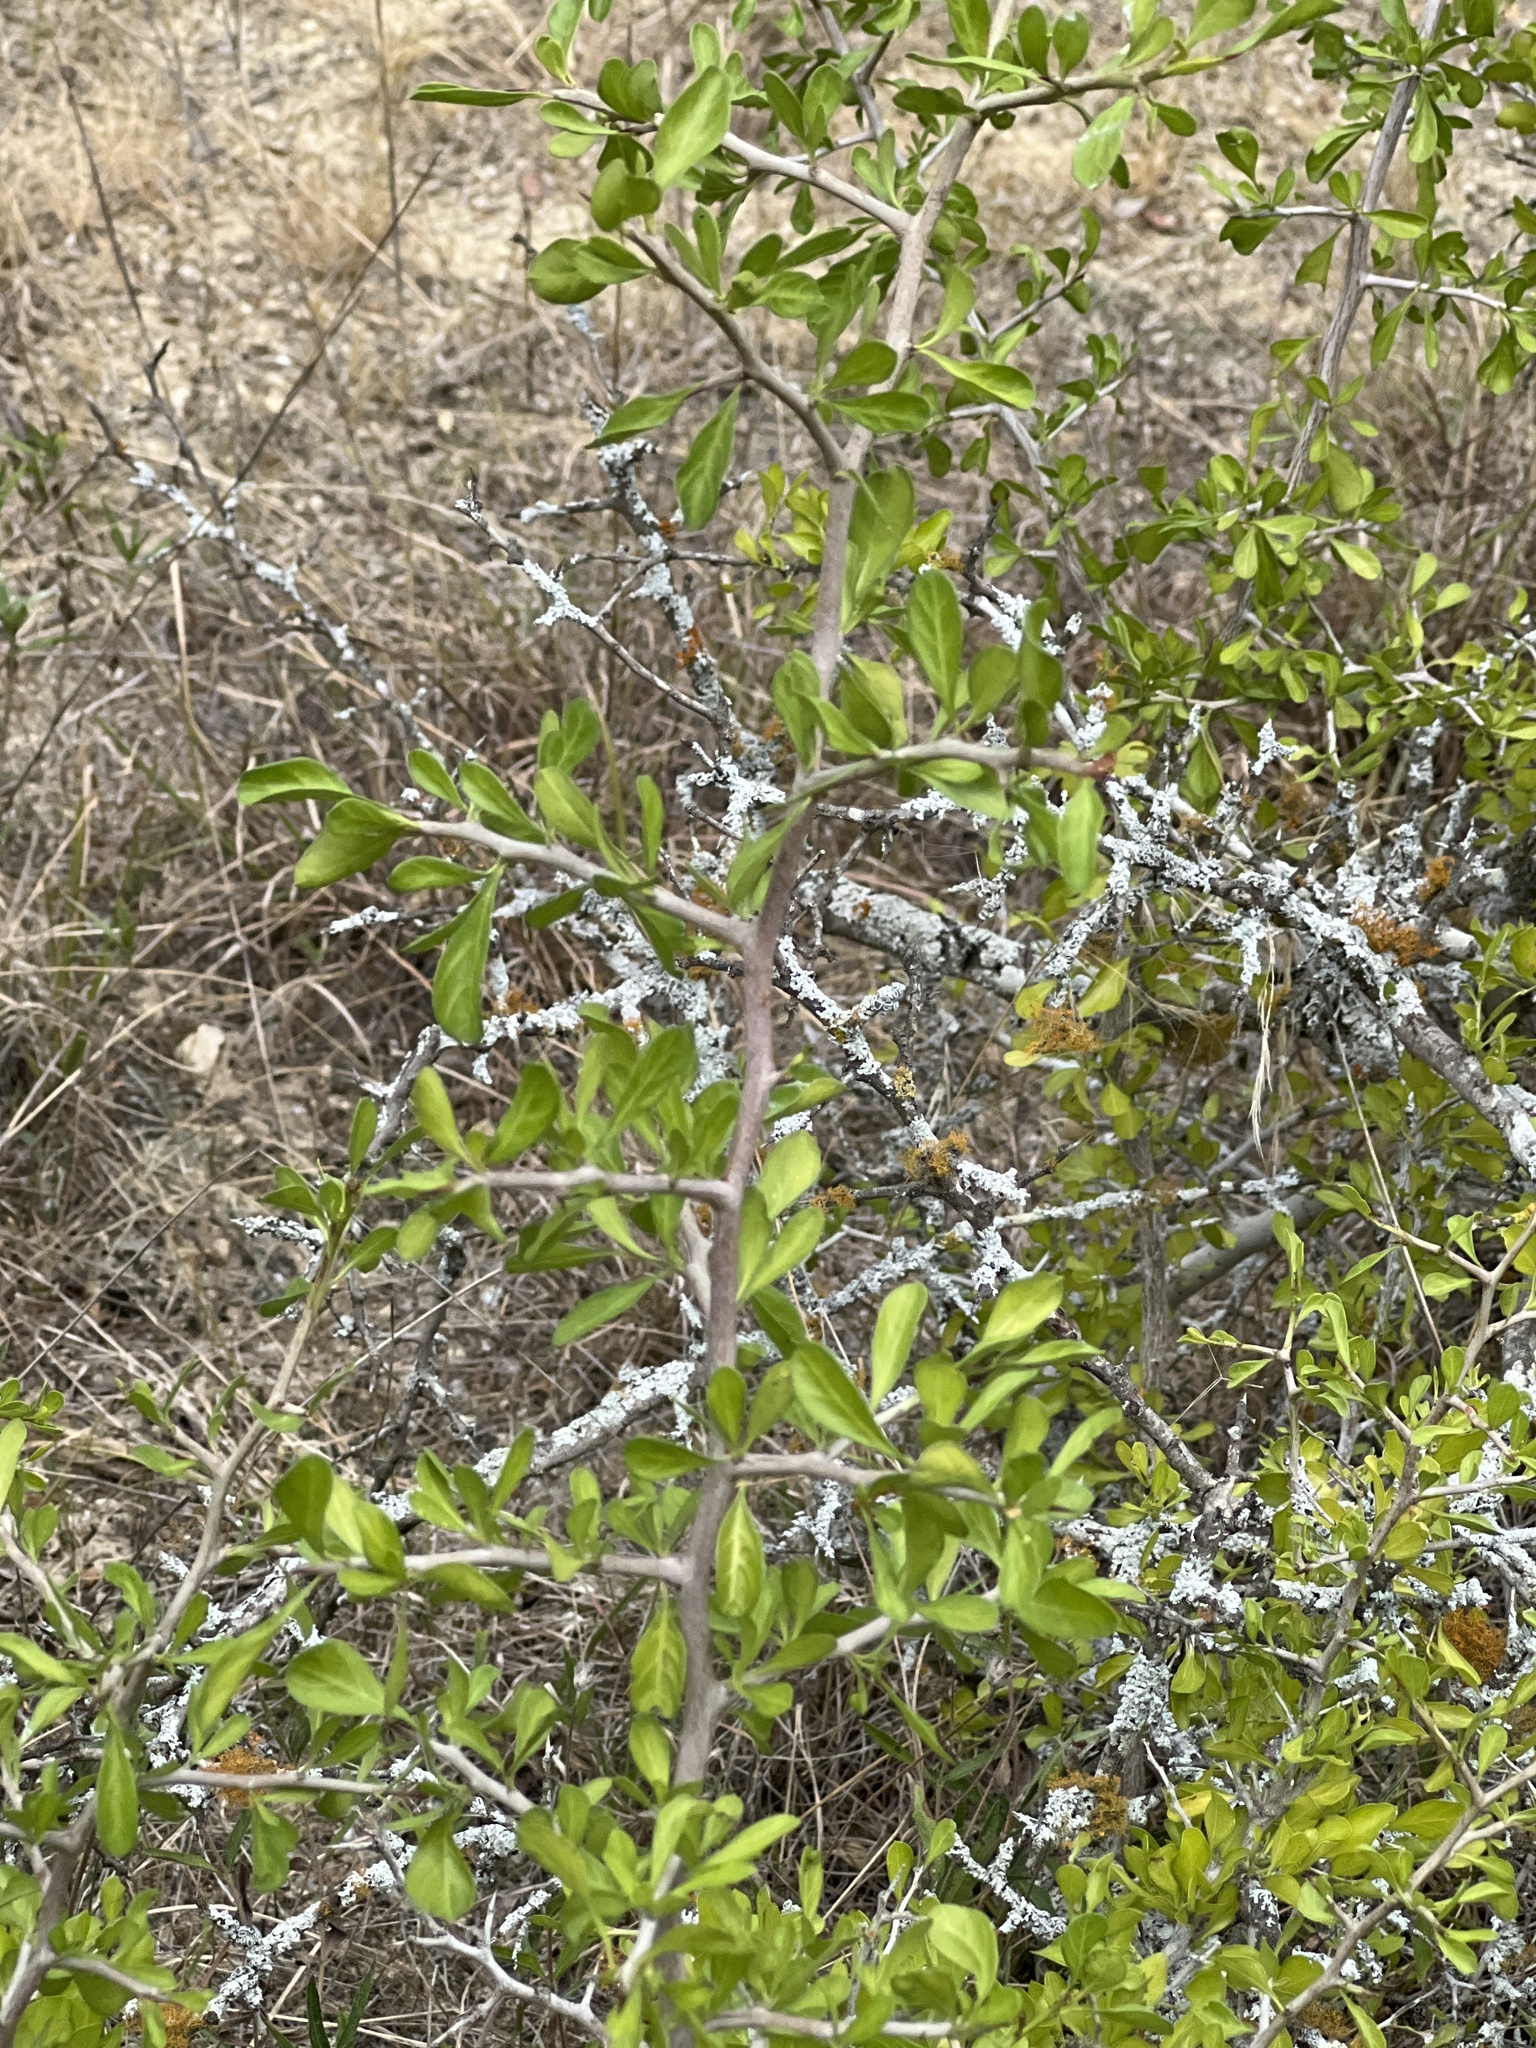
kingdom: Plantae
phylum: Tracheophyta
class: Magnoliopsida
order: Rosales
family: Rhamnaceae
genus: Condalia
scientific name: Condalia hookeri
